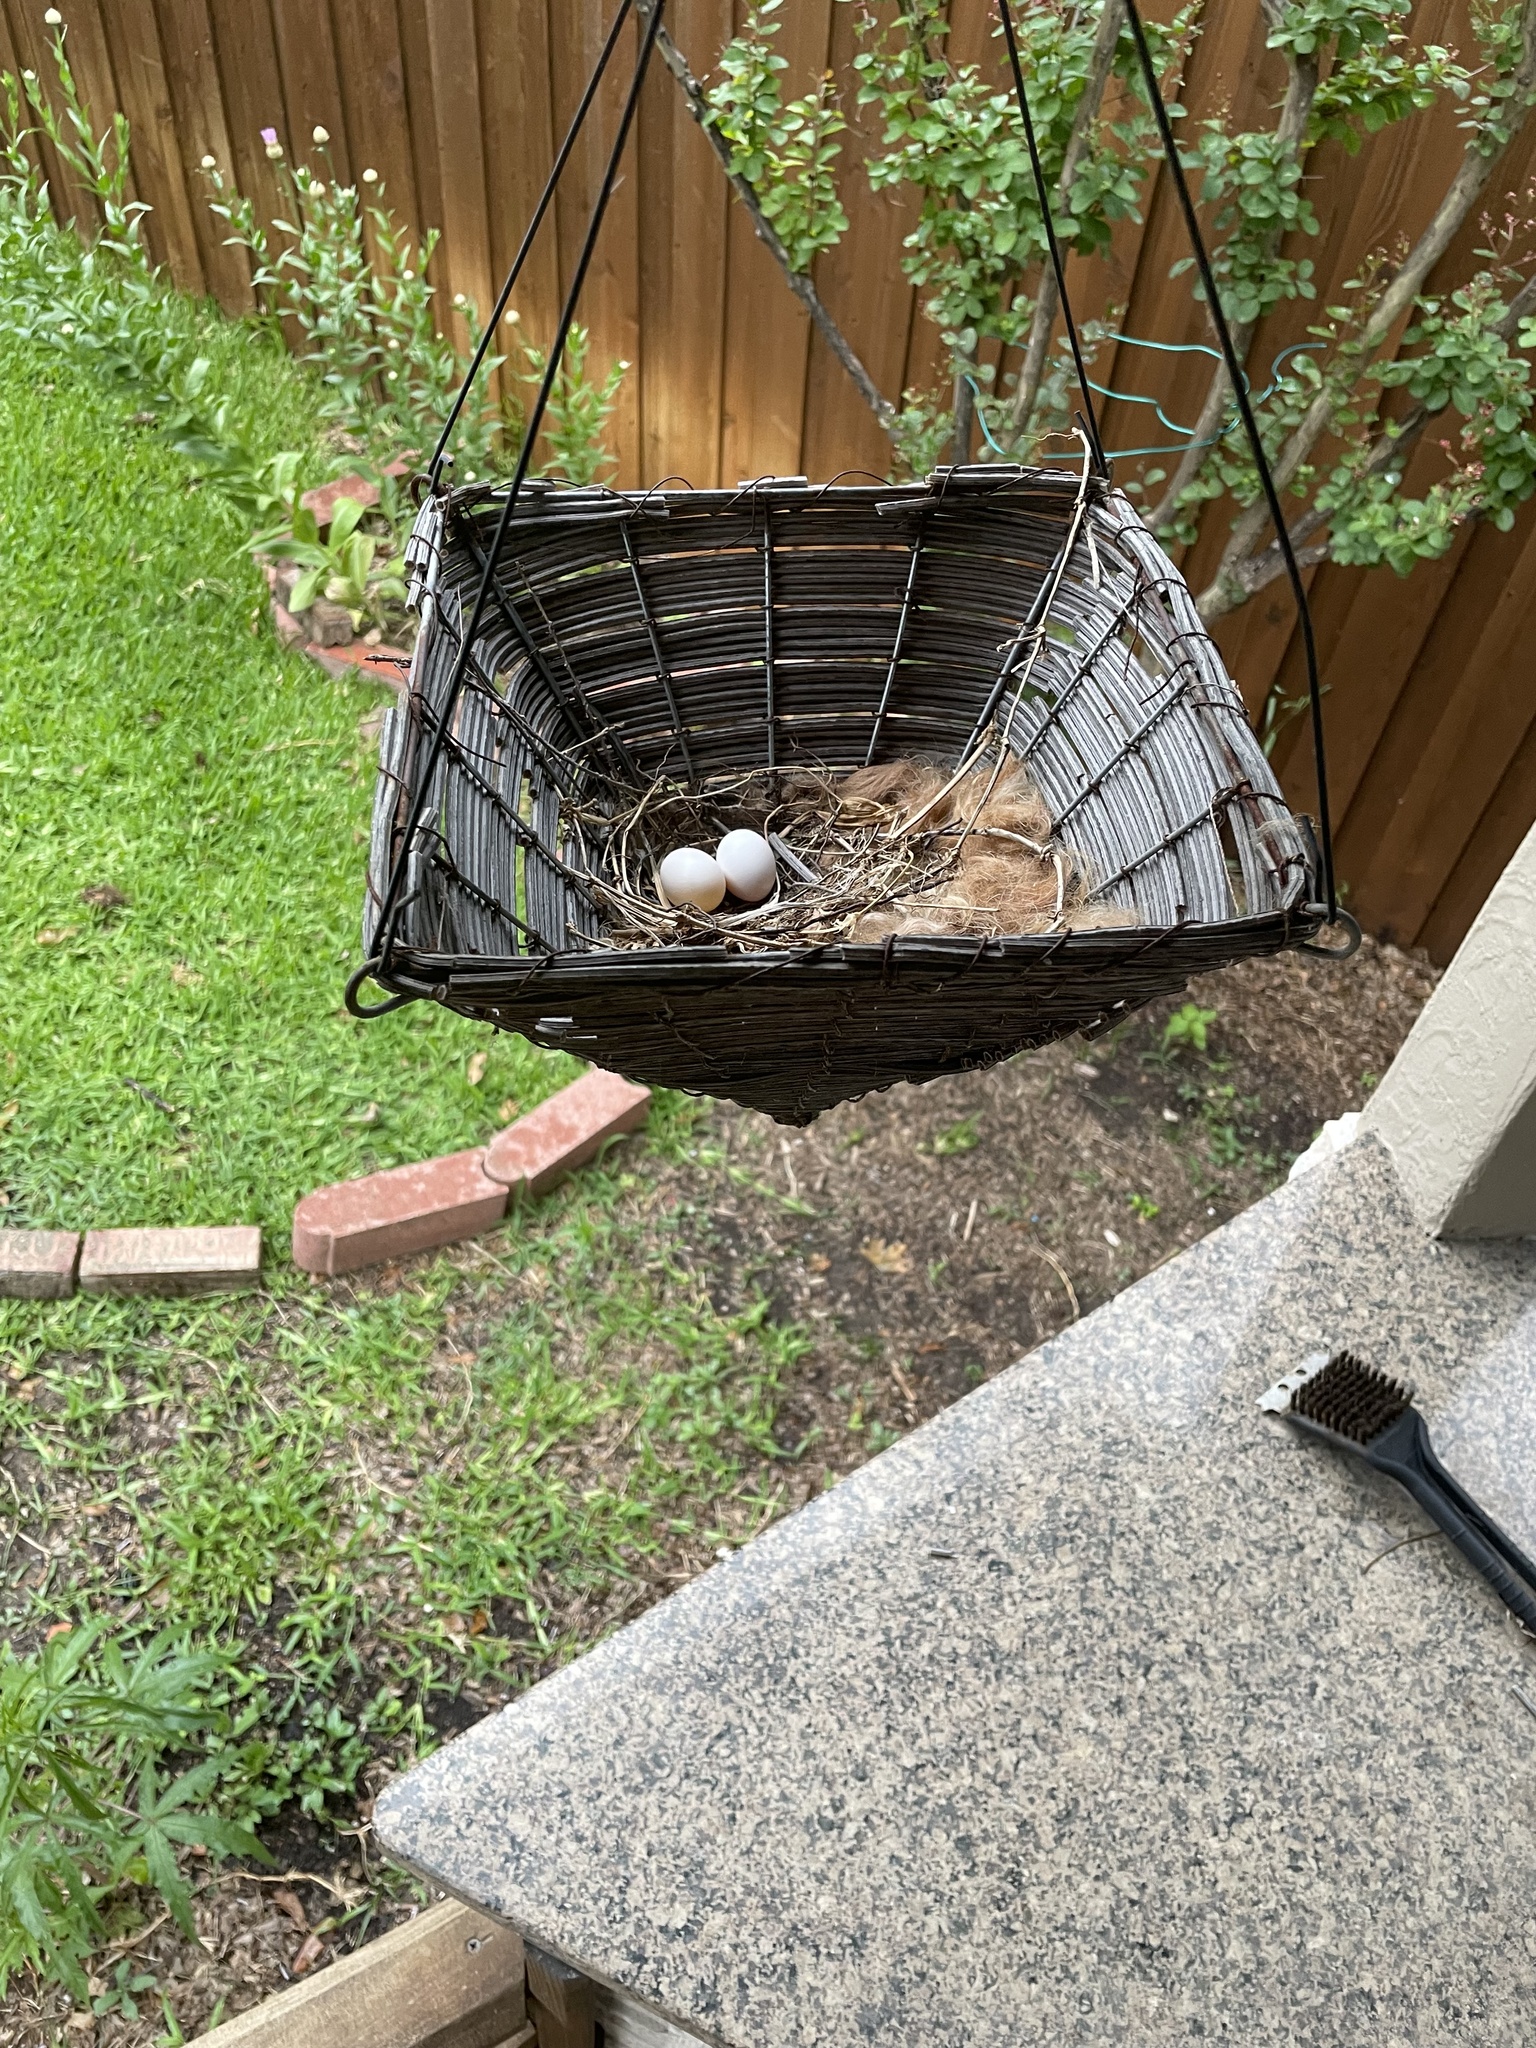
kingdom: Animalia
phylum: Chordata
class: Aves
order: Columbiformes
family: Columbidae
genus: Zenaida
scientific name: Zenaida macroura
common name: Mourning dove
